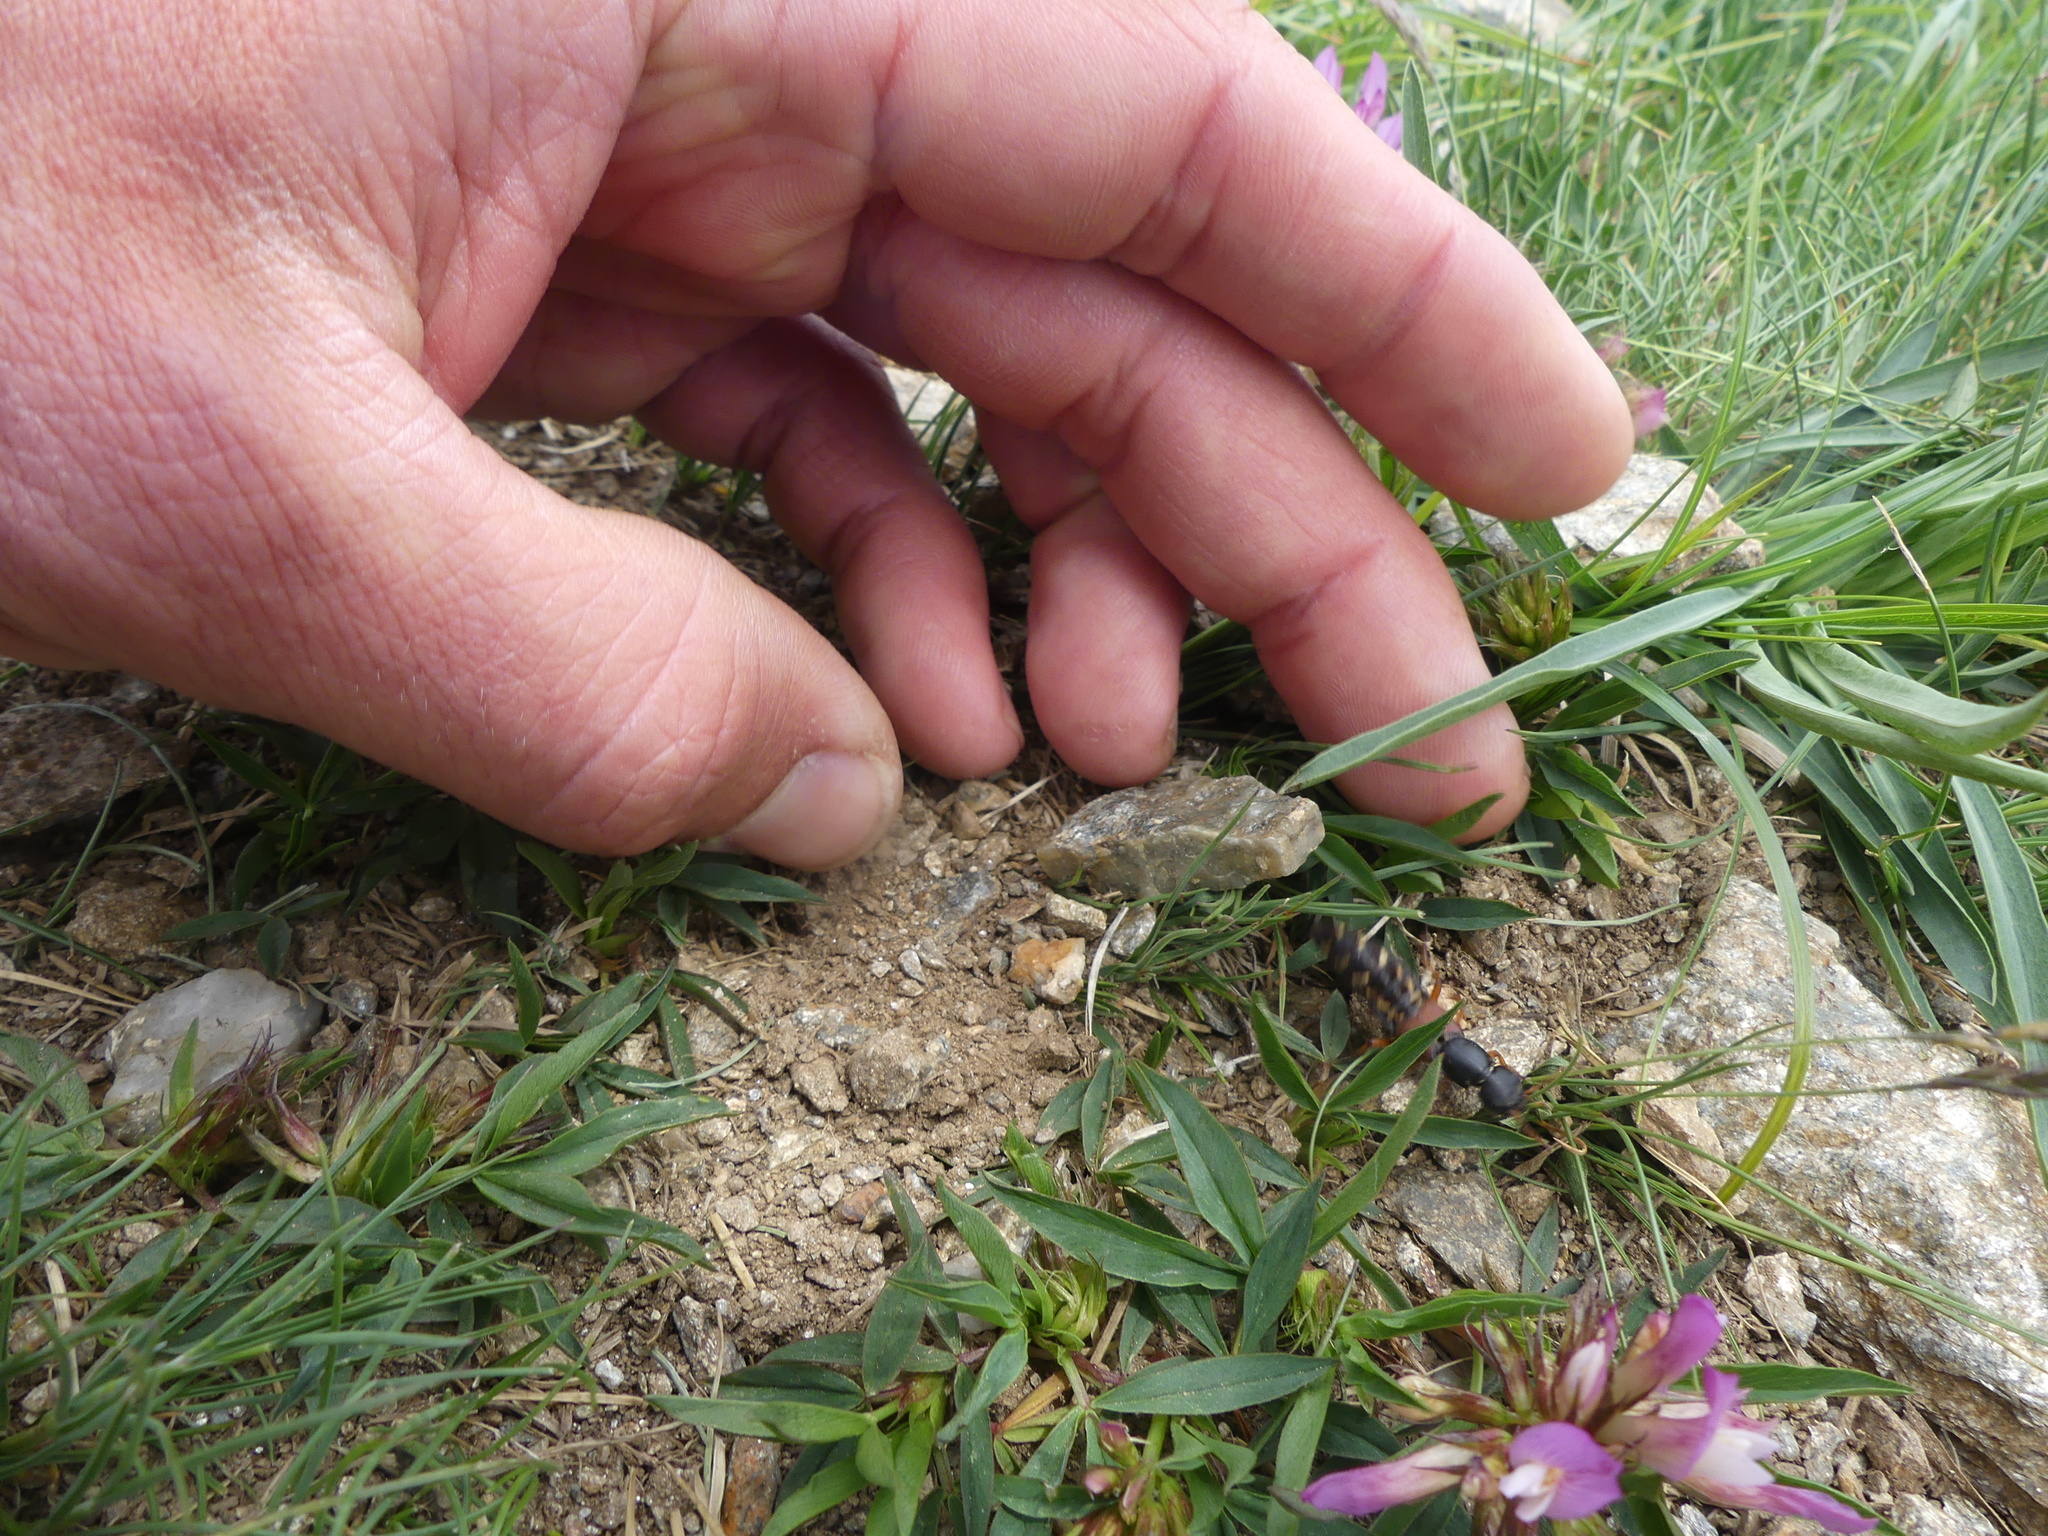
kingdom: Animalia
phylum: Arthropoda
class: Insecta
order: Coleoptera
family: Staphylinidae
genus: Staphylinus
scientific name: Staphylinus erythropterus
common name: Staph beetle
